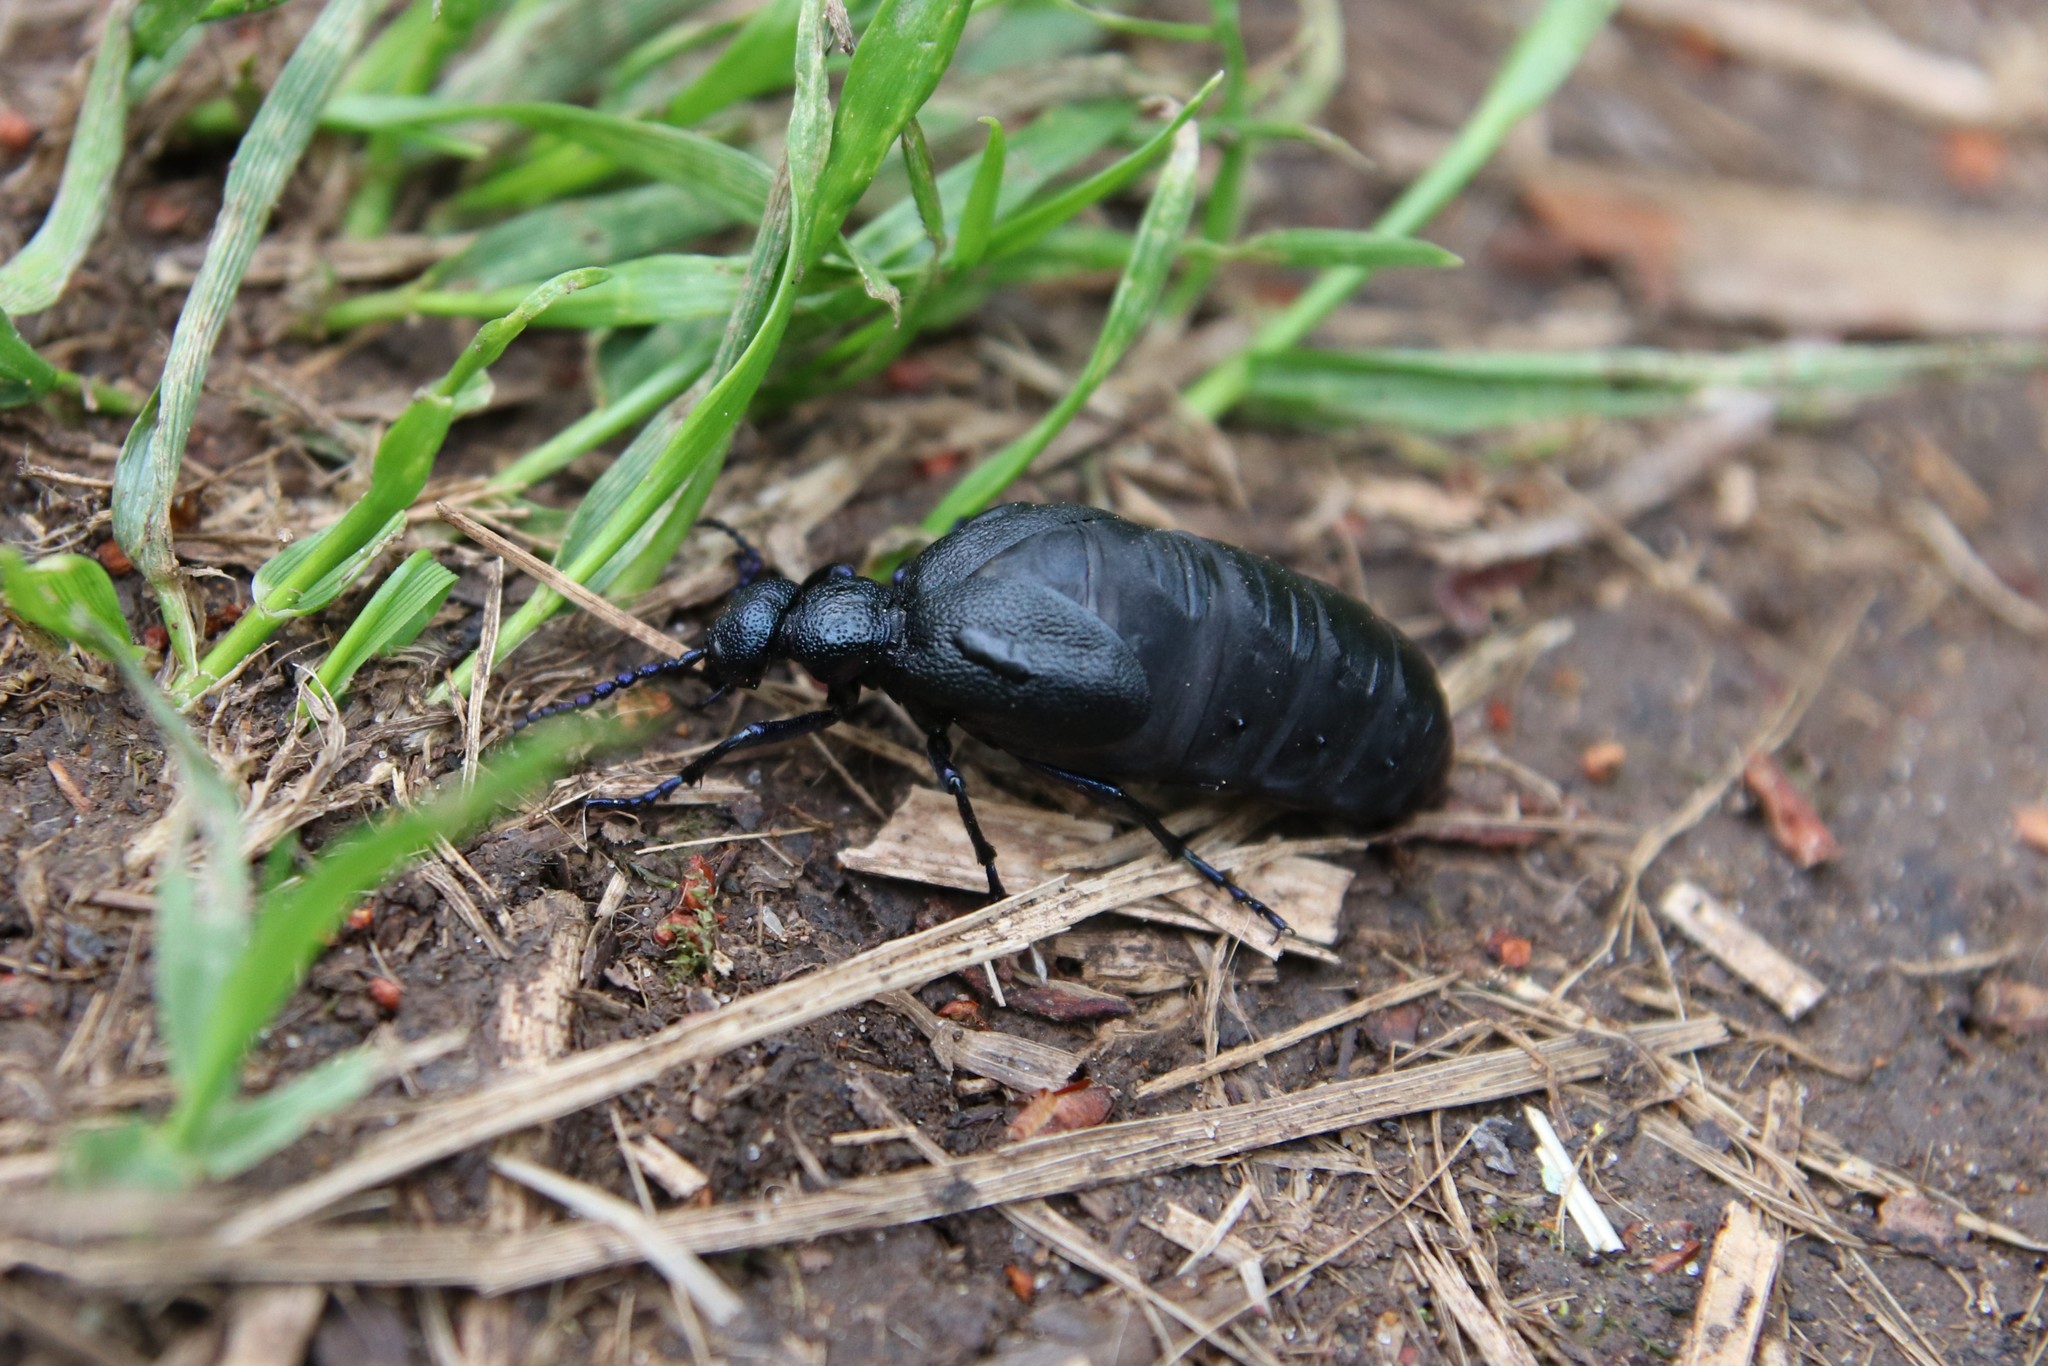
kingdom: Animalia
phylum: Arthropoda
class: Insecta
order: Coleoptera
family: Meloidae
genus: Meloe
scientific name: Meloe proscarabaeus
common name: Black oil-beetle
